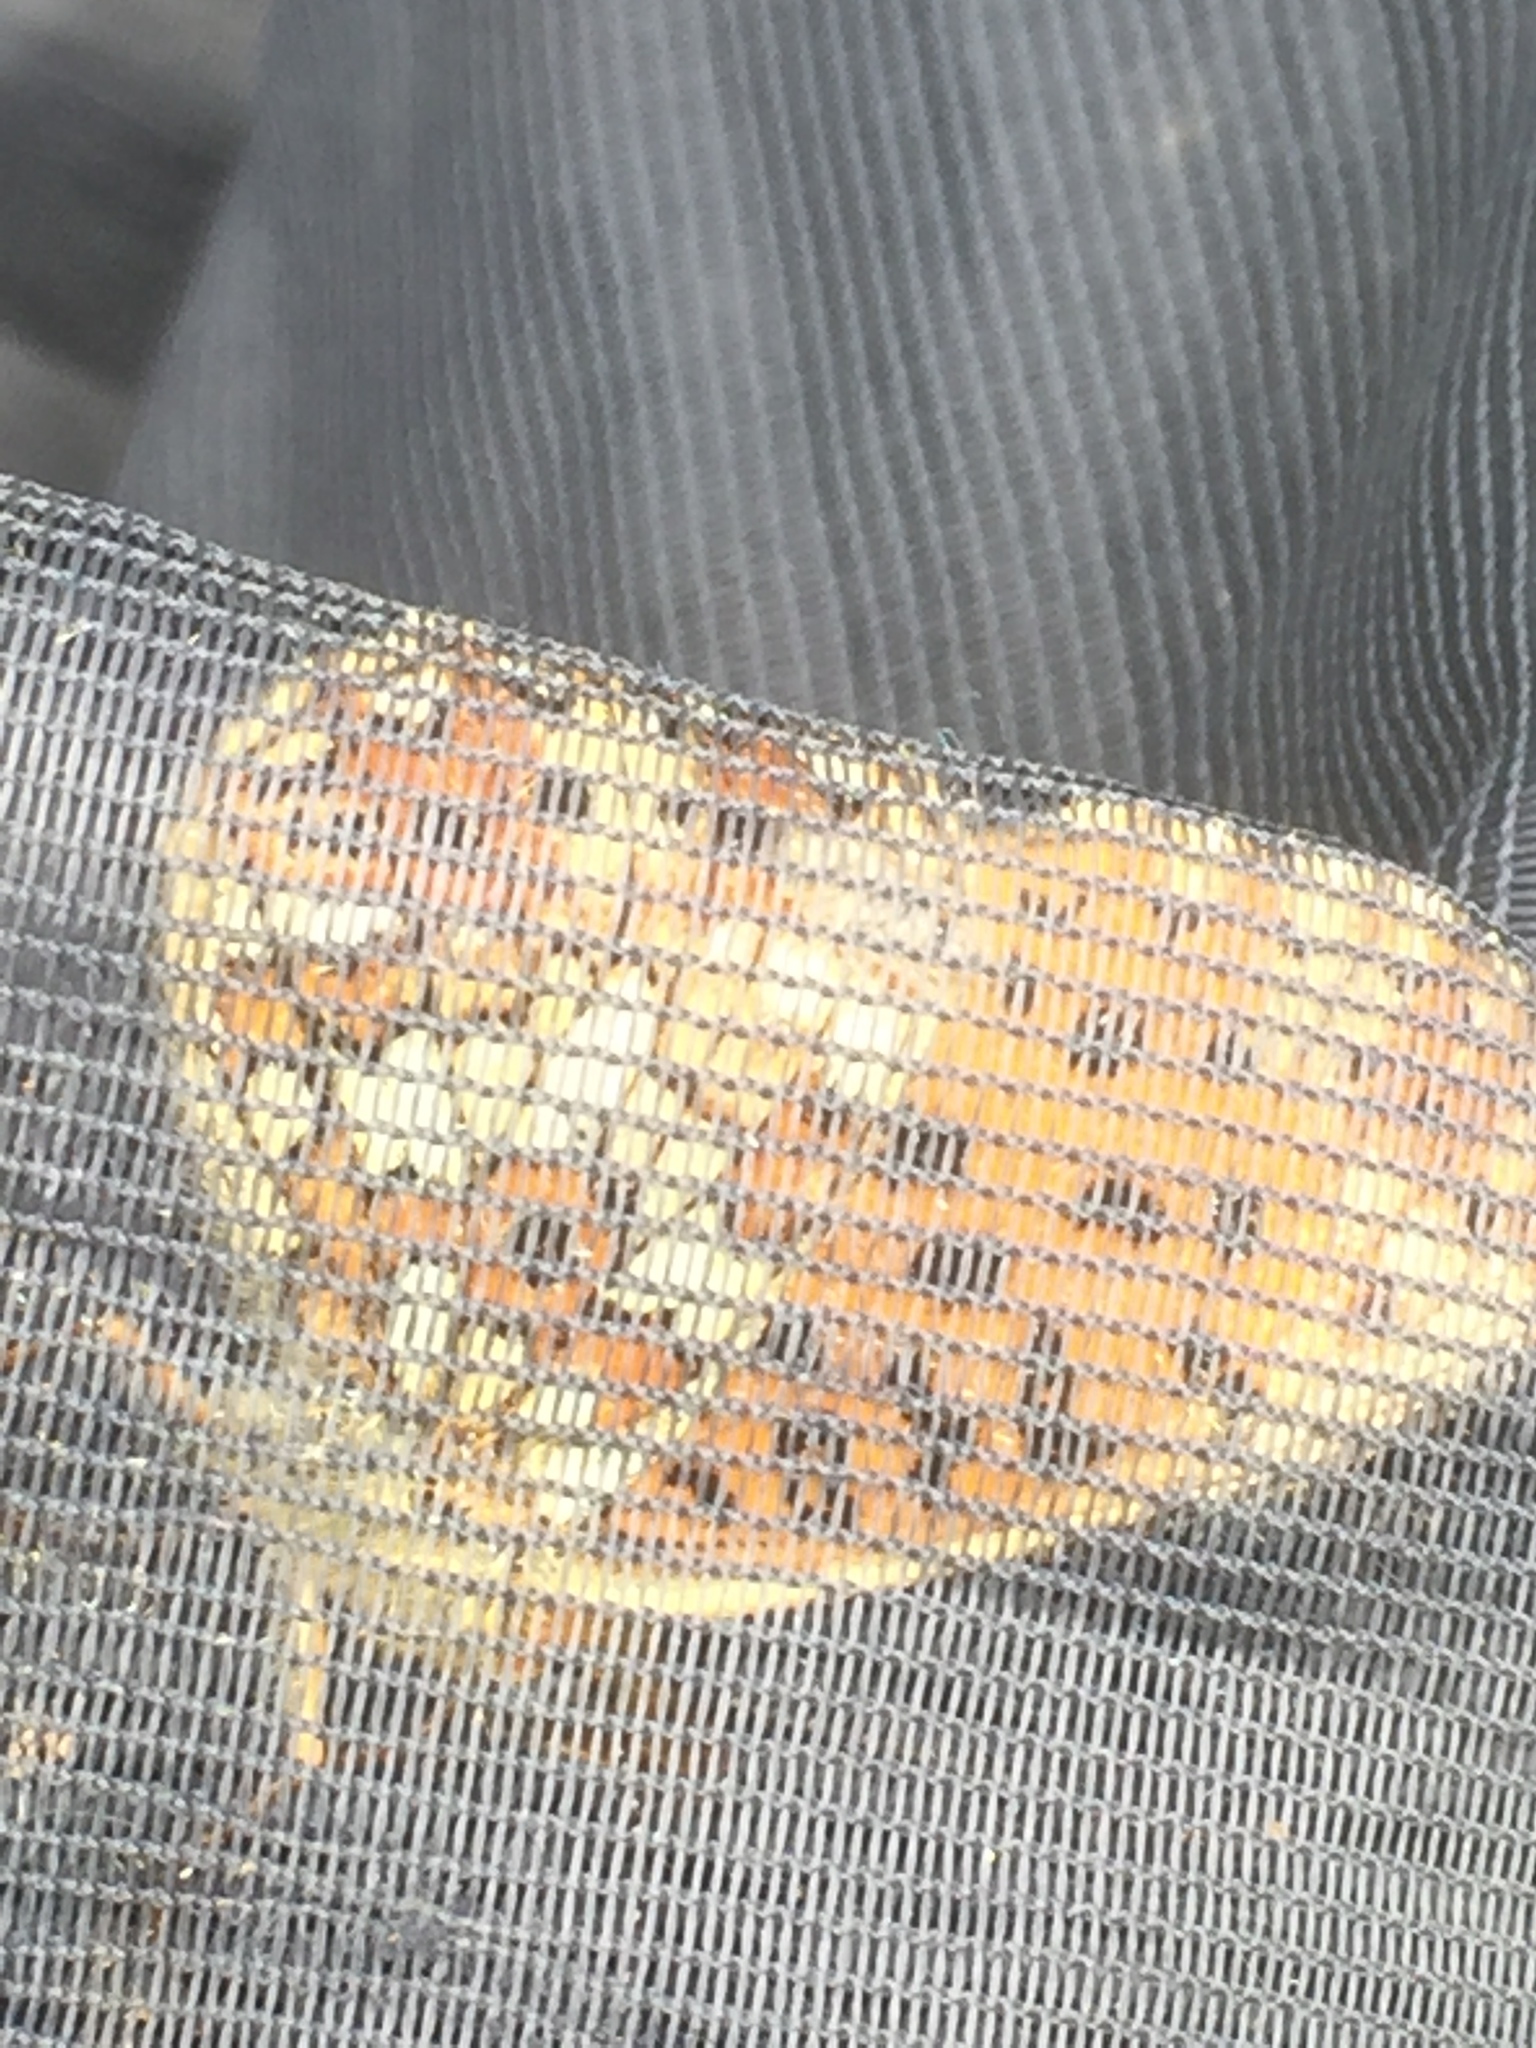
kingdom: Animalia
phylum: Arthropoda
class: Insecta
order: Lepidoptera
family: Nymphalidae
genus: Boloria
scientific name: Boloria selene
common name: Small pearl-bordered fritillary
